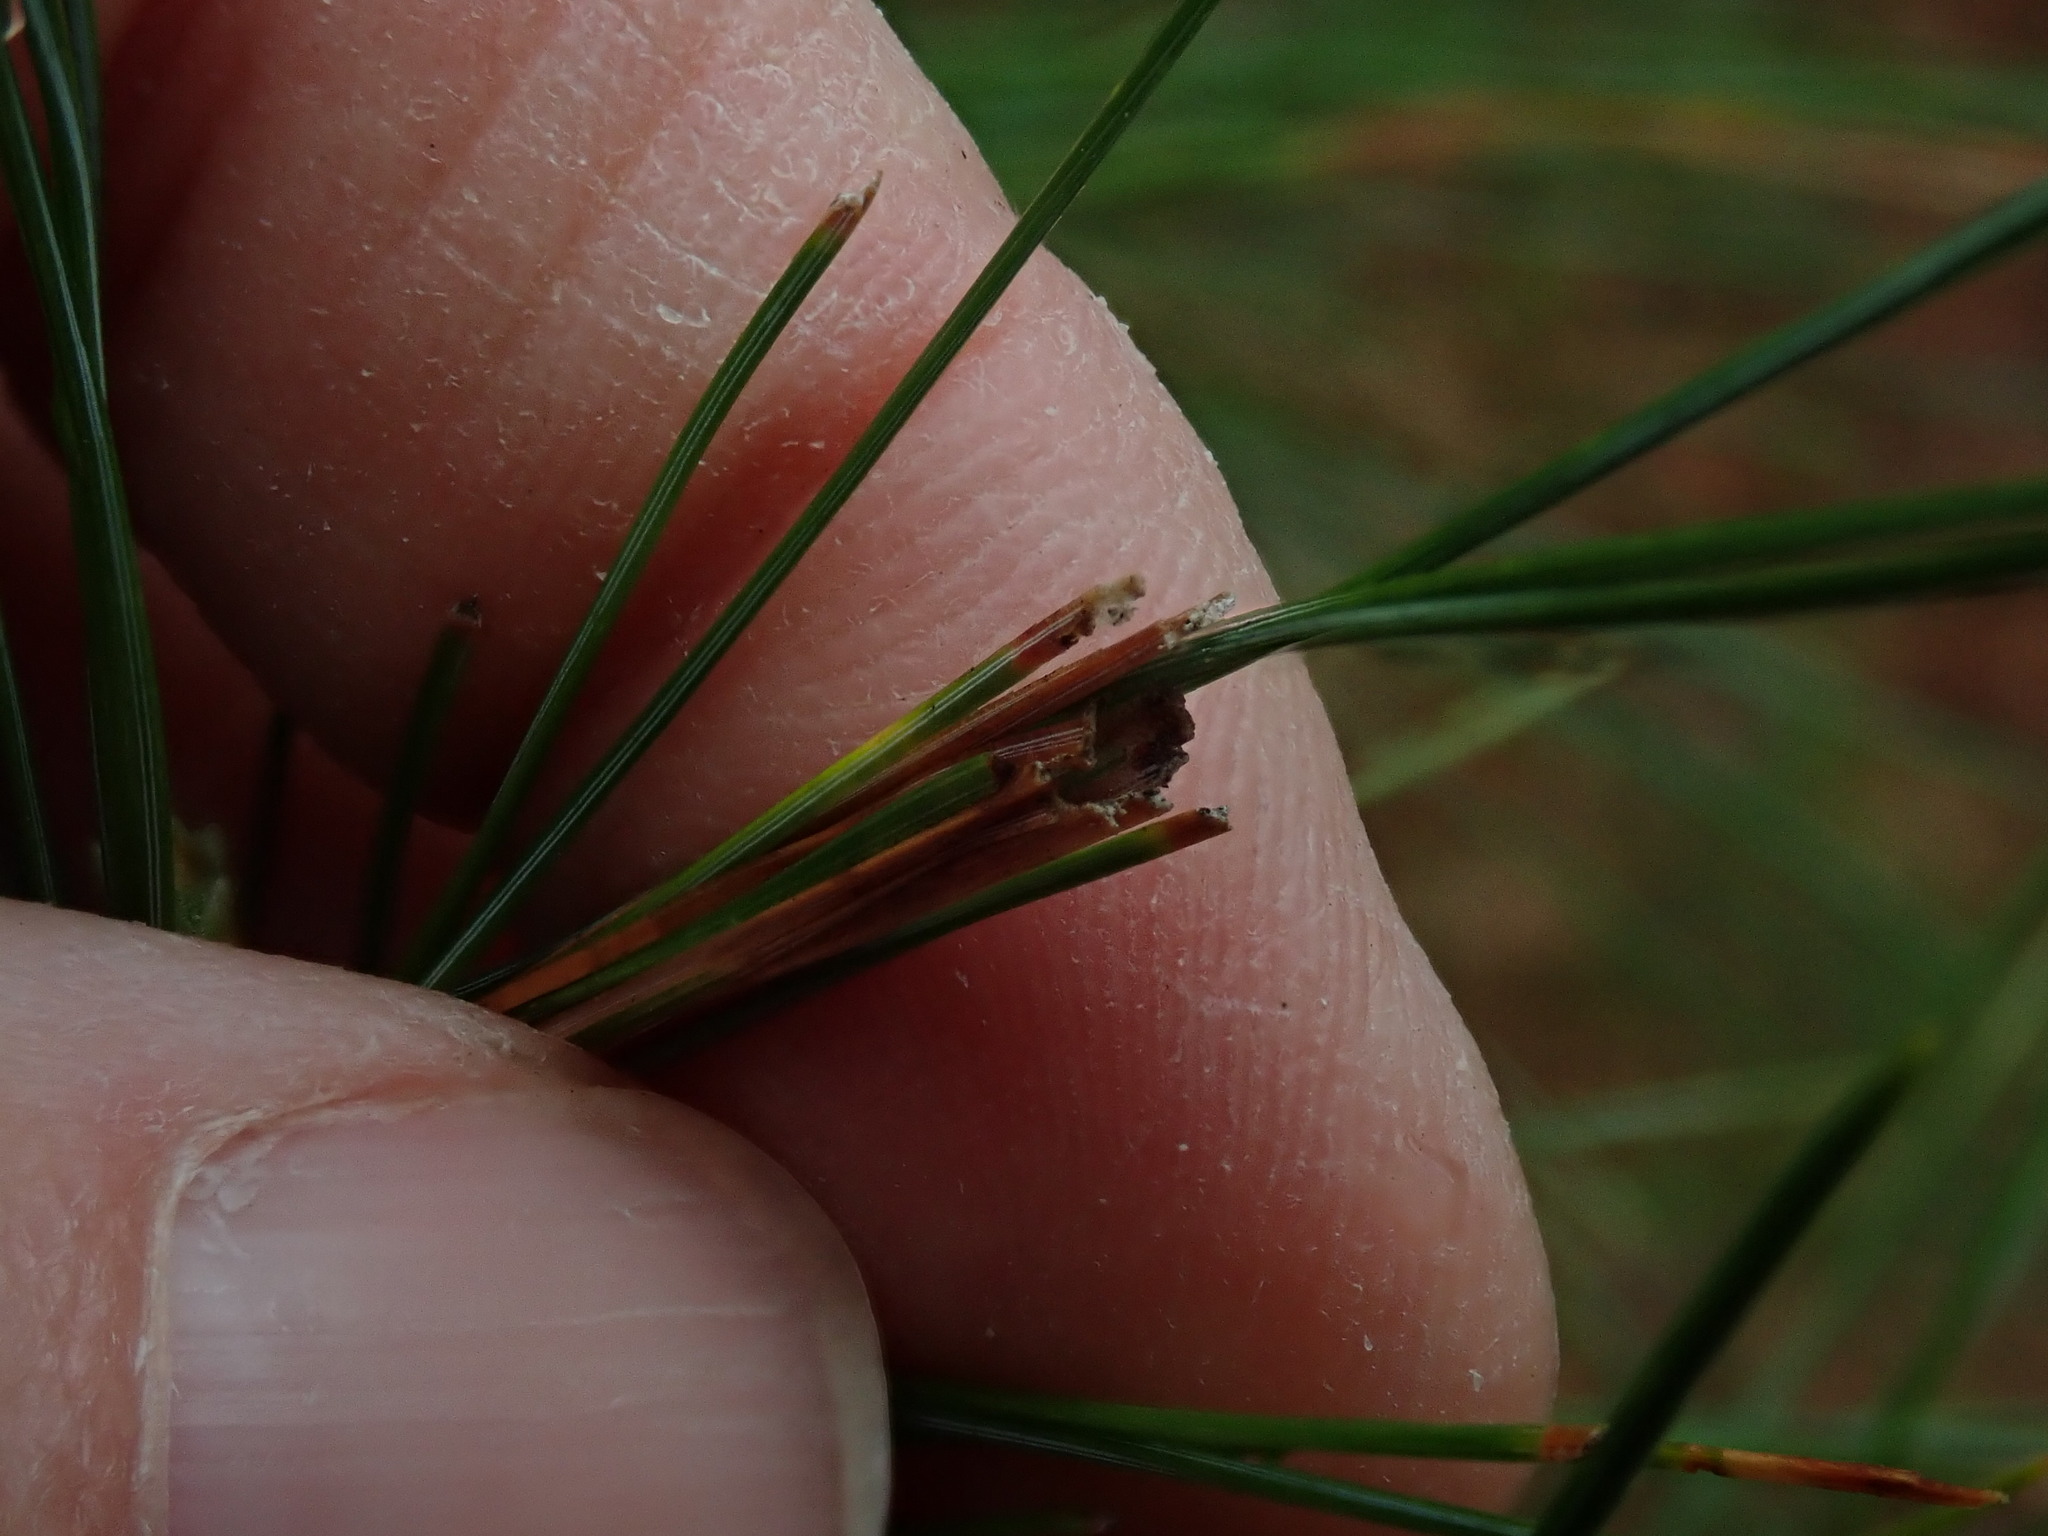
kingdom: Animalia
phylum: Arthropoda
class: Insecta
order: Lepidoptera
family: Tortricidae
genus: Argyrotaenia
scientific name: Argyrotaenia pinatubana
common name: Pine tube moth
